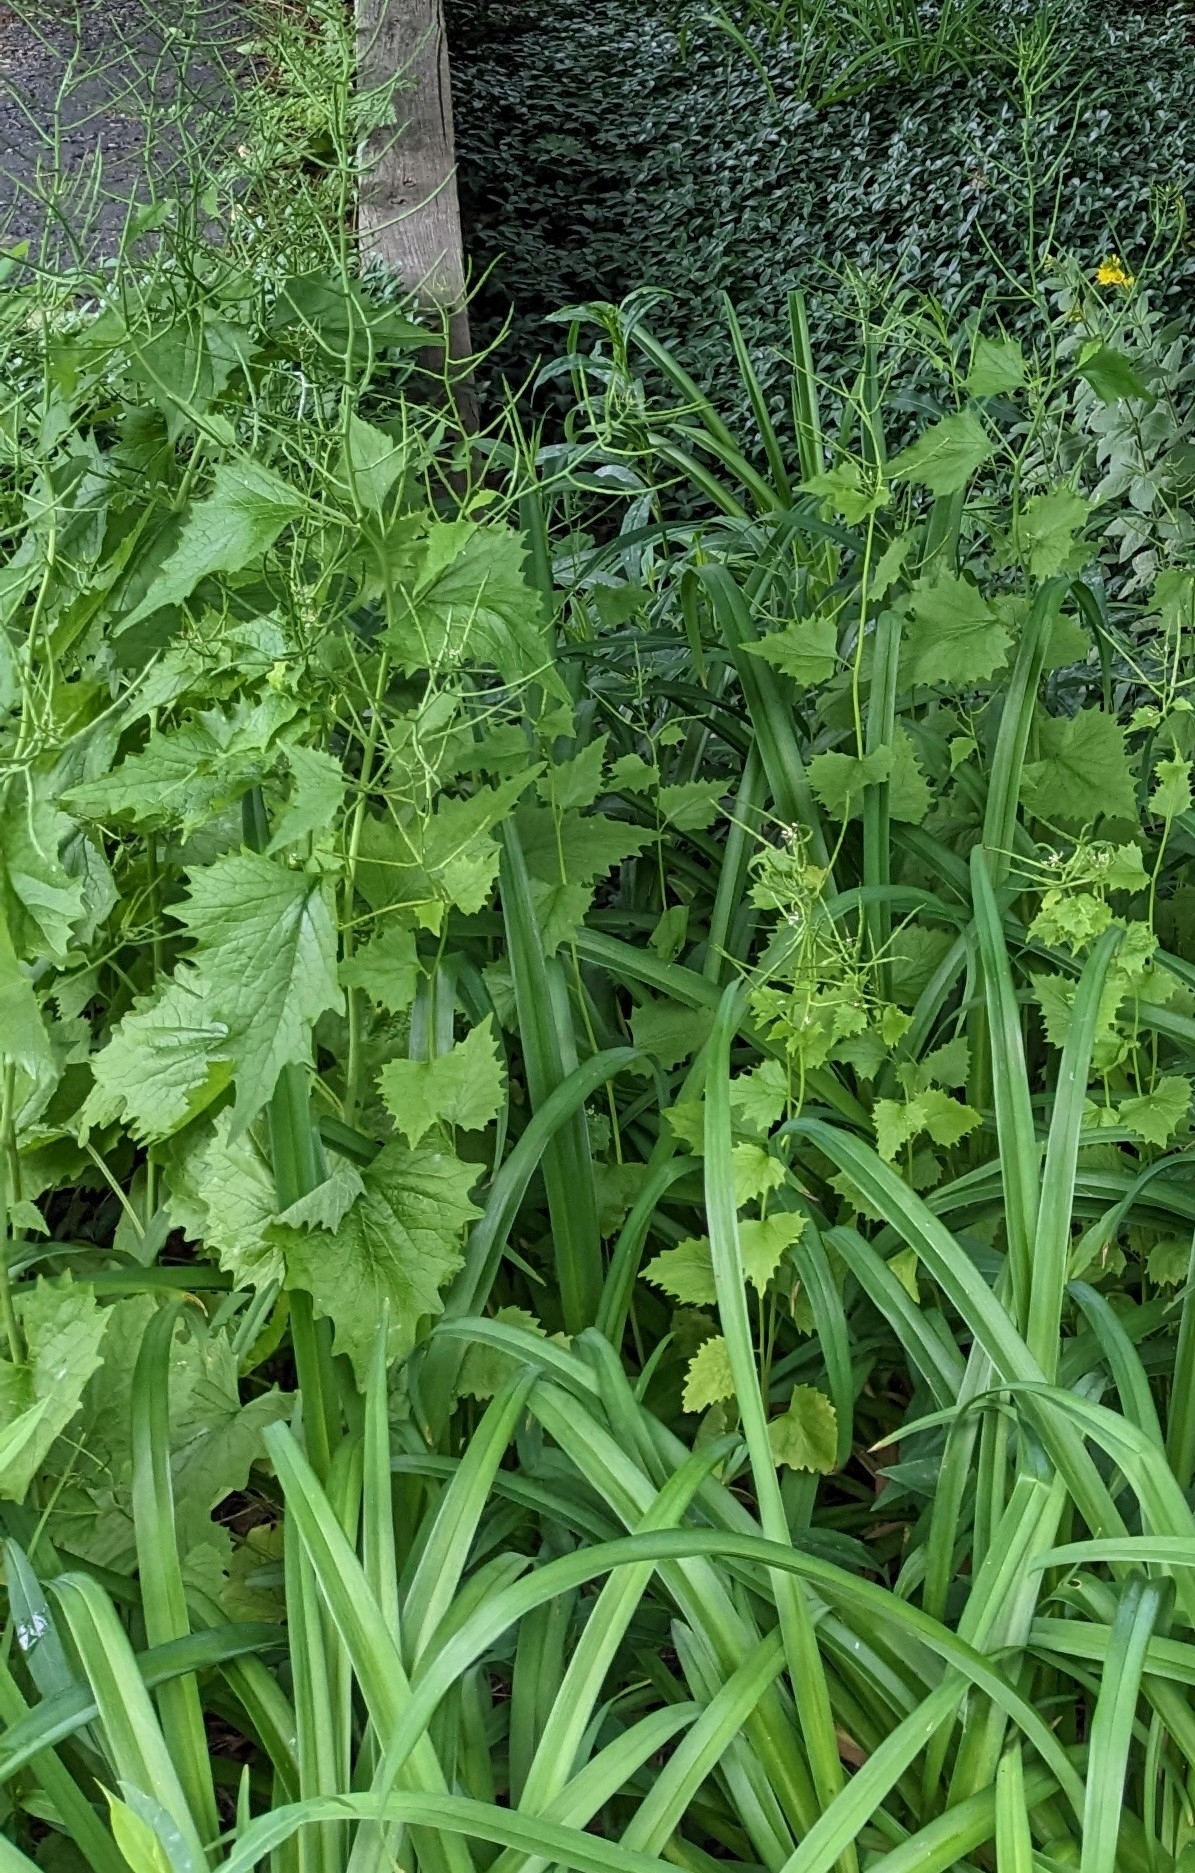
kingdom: Plantae
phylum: Tracheophyta
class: Magnoliopsida
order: Brassicales
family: Brassicaceae
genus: Alliaria
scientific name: Alliaria petiolata
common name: Garlic mustard
